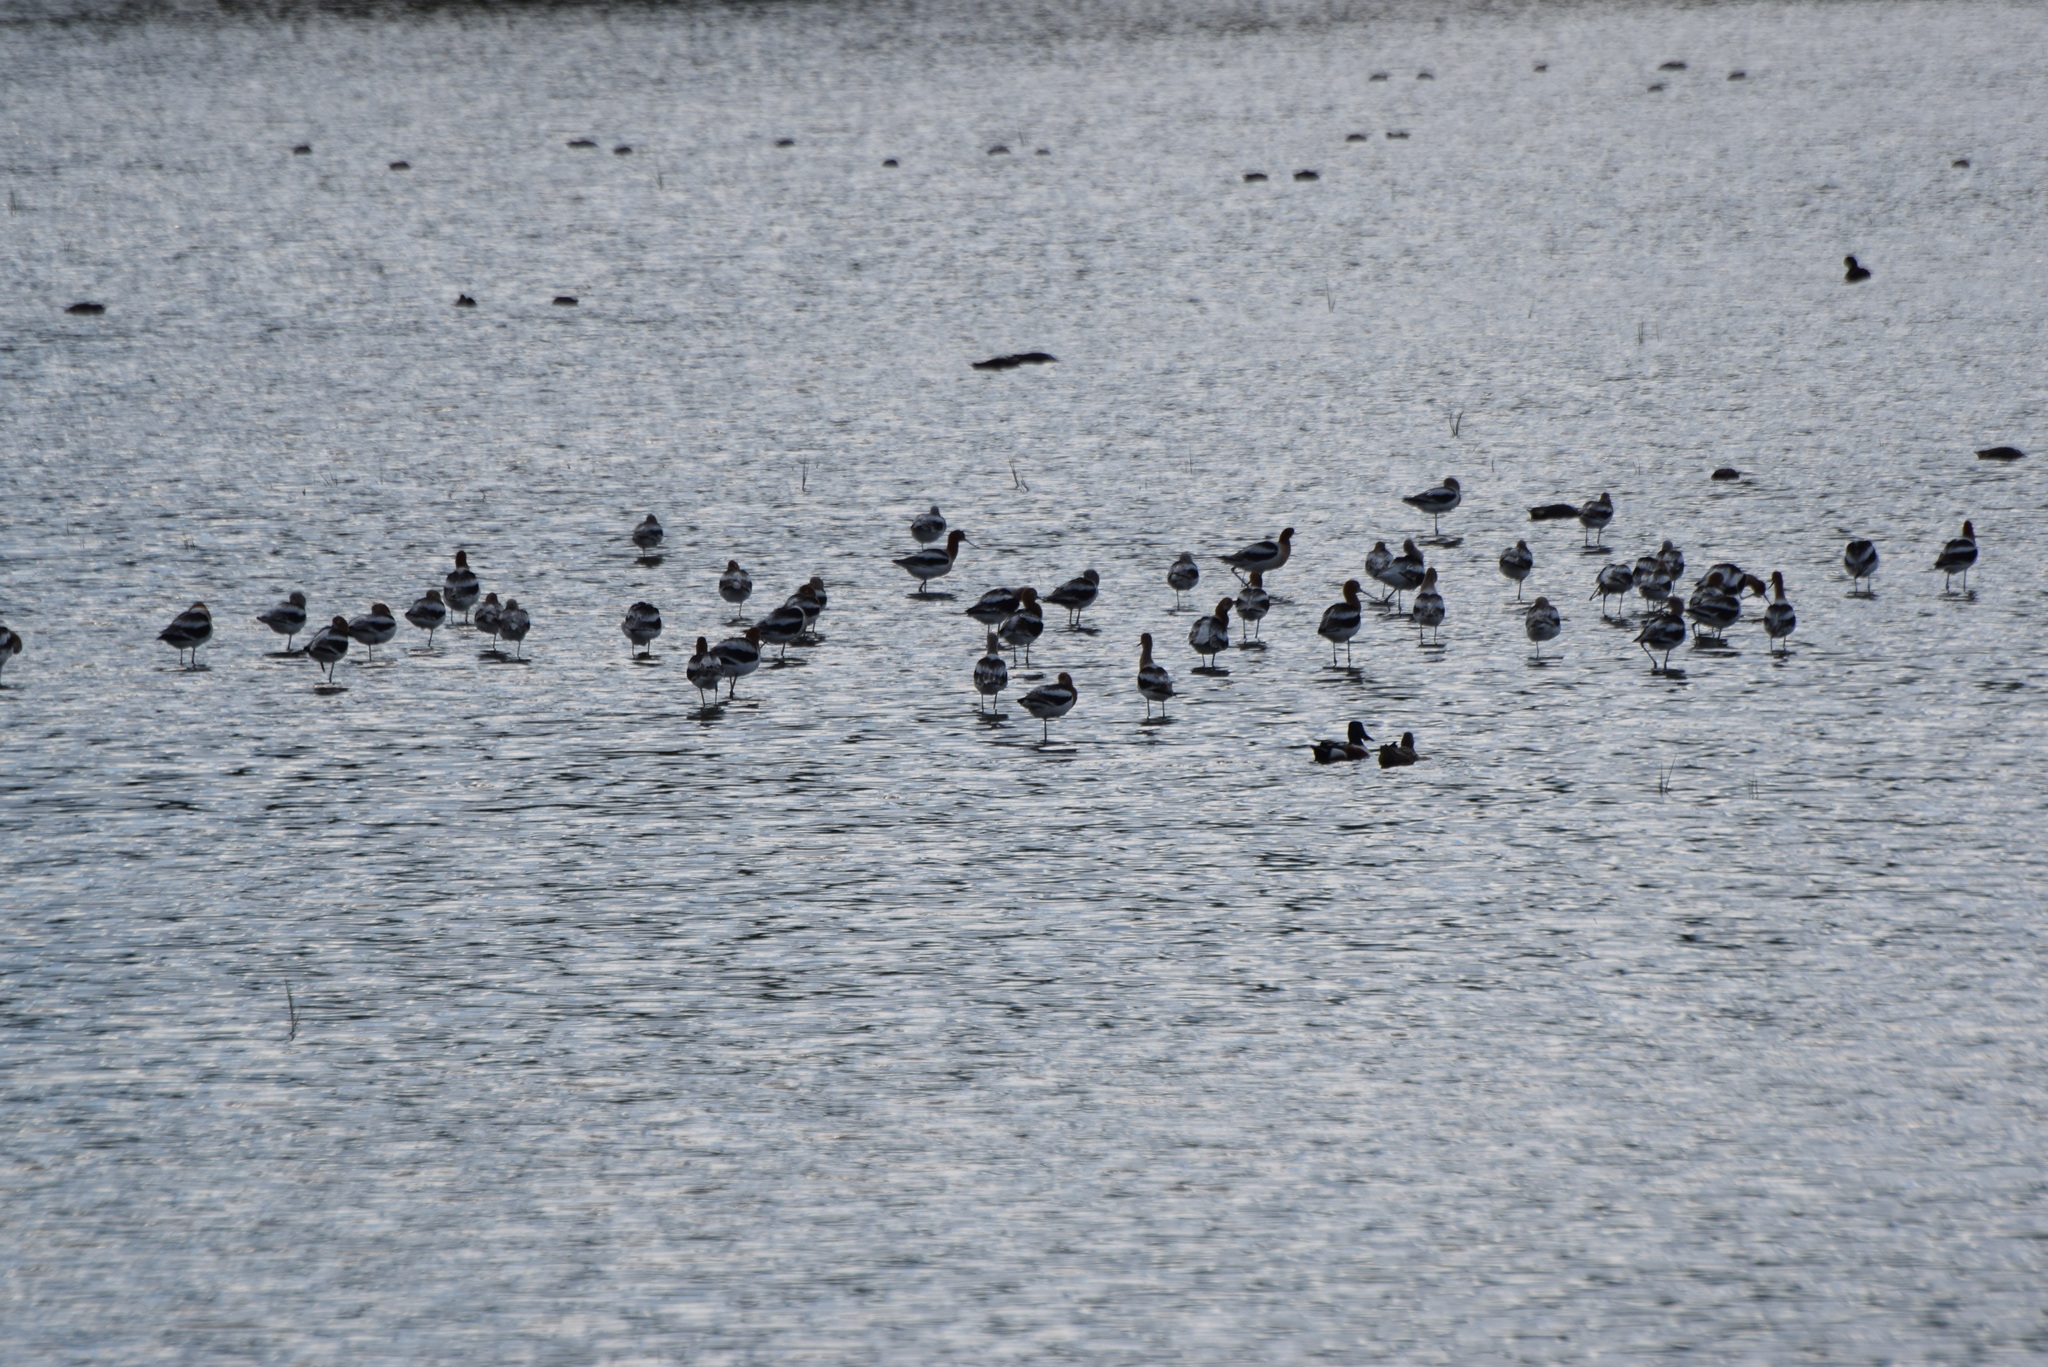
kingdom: Animalia
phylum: Chordata
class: Aves
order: Charadriiformes
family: Recurvirostridae
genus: Recurvirostra
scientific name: Recurvirostra americana
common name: American avocet
